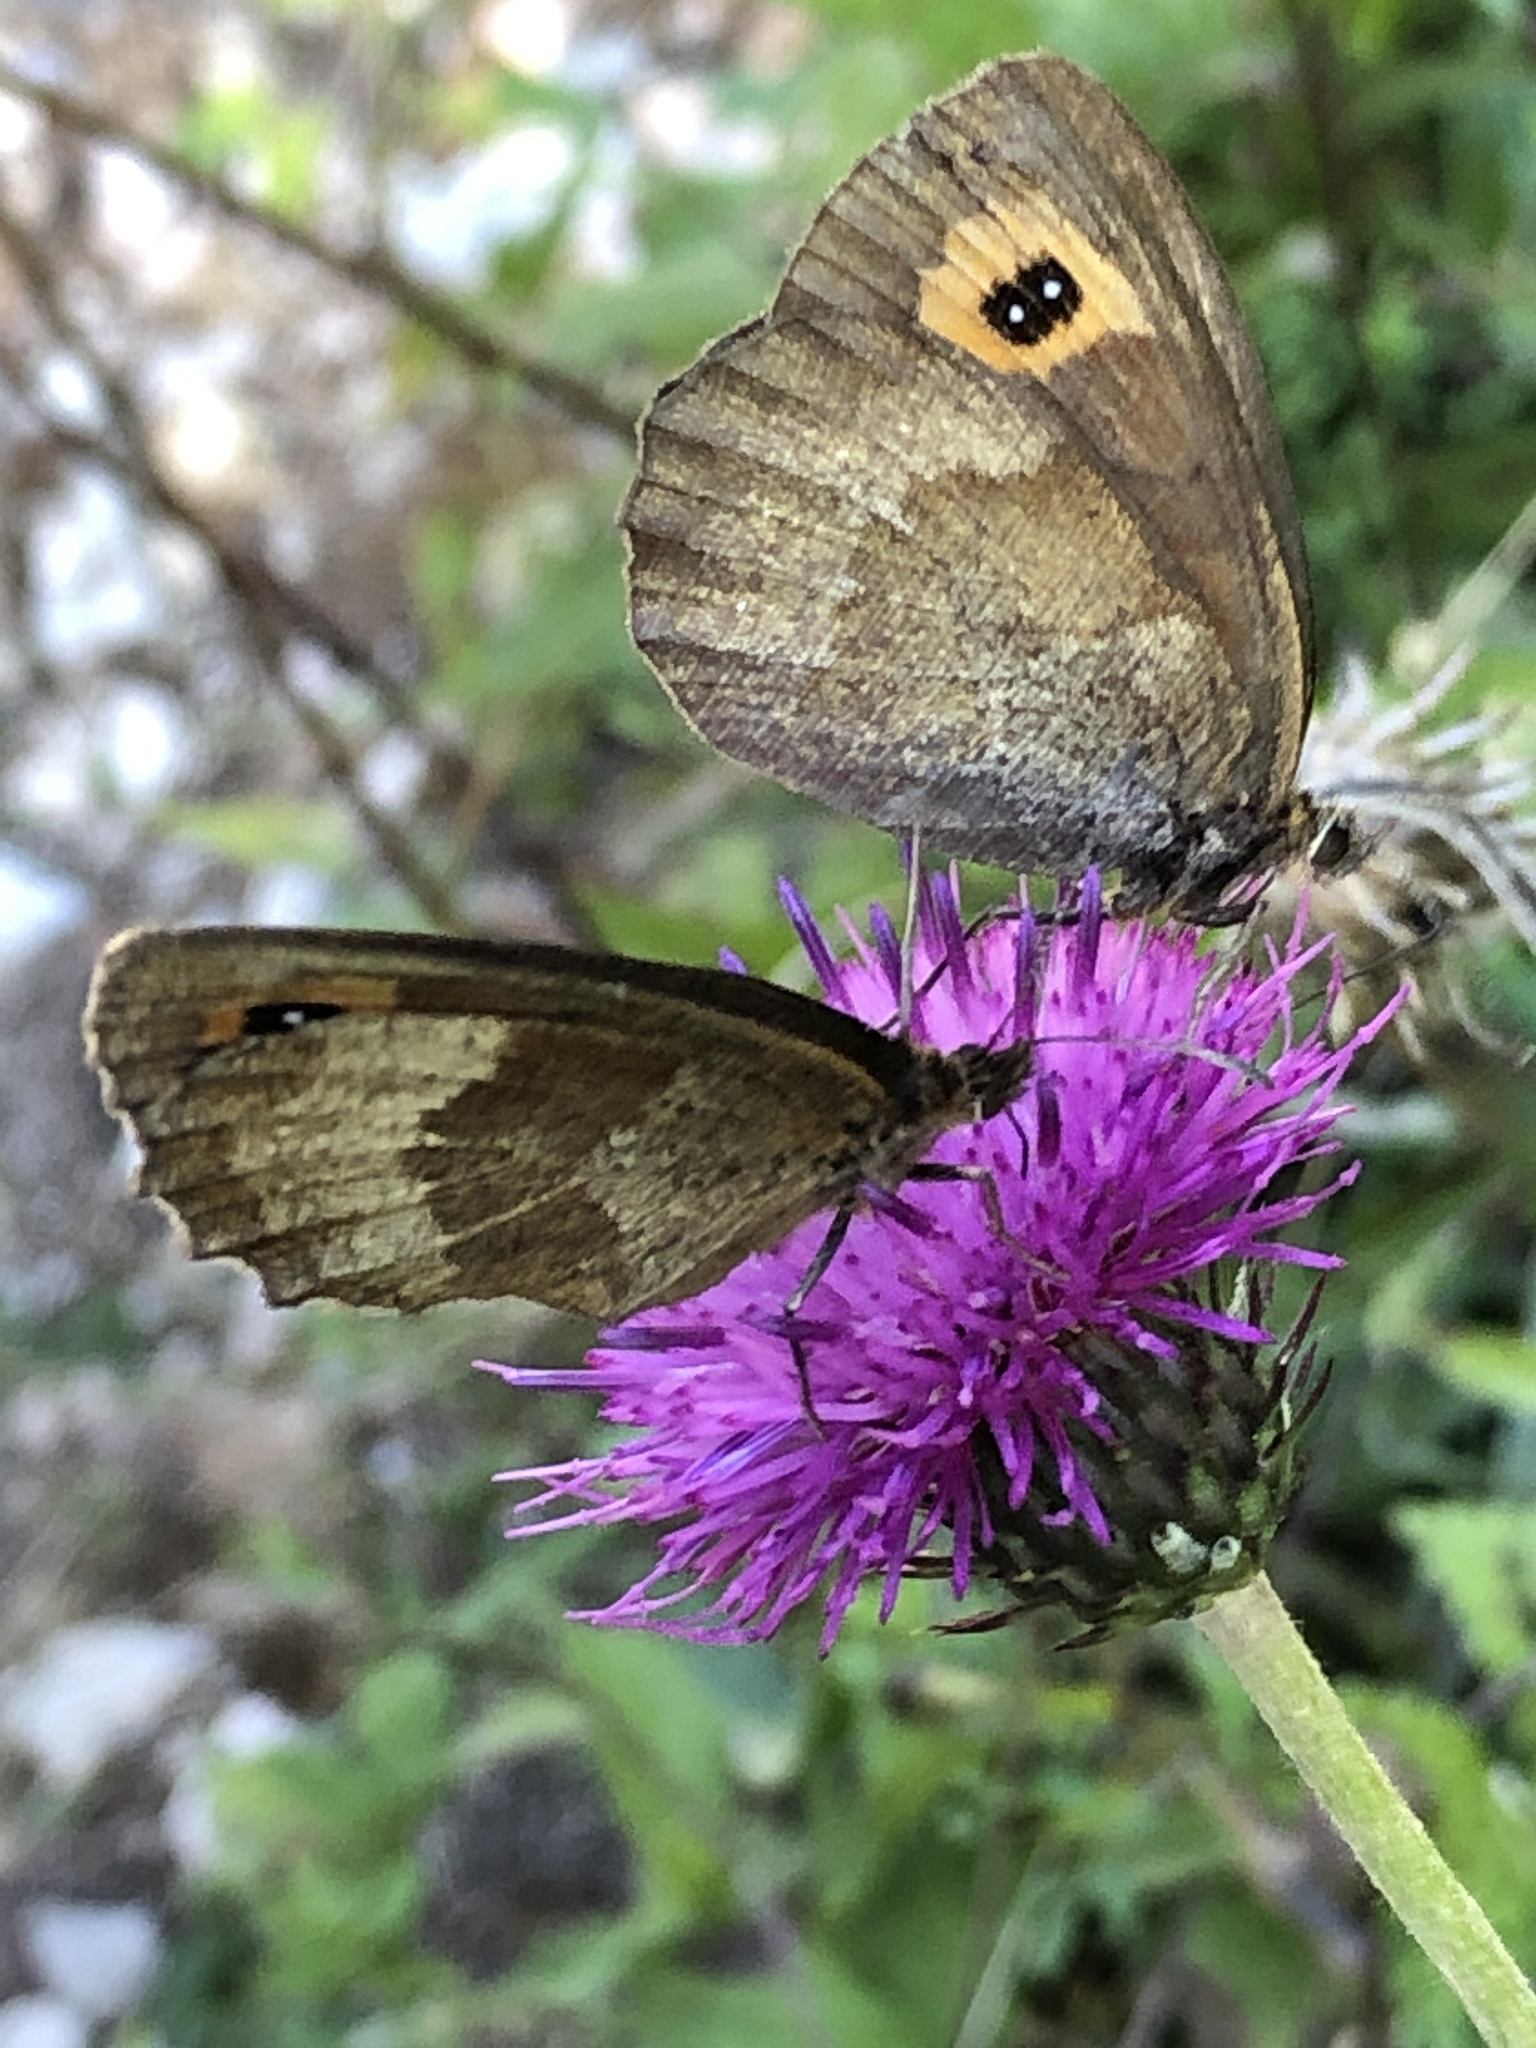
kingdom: Animalia
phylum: Arthropoda
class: Insecta
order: Lepidoptera
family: Nymphalidae
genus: Erebia
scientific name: Erebia aethiops
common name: Scotch argus
